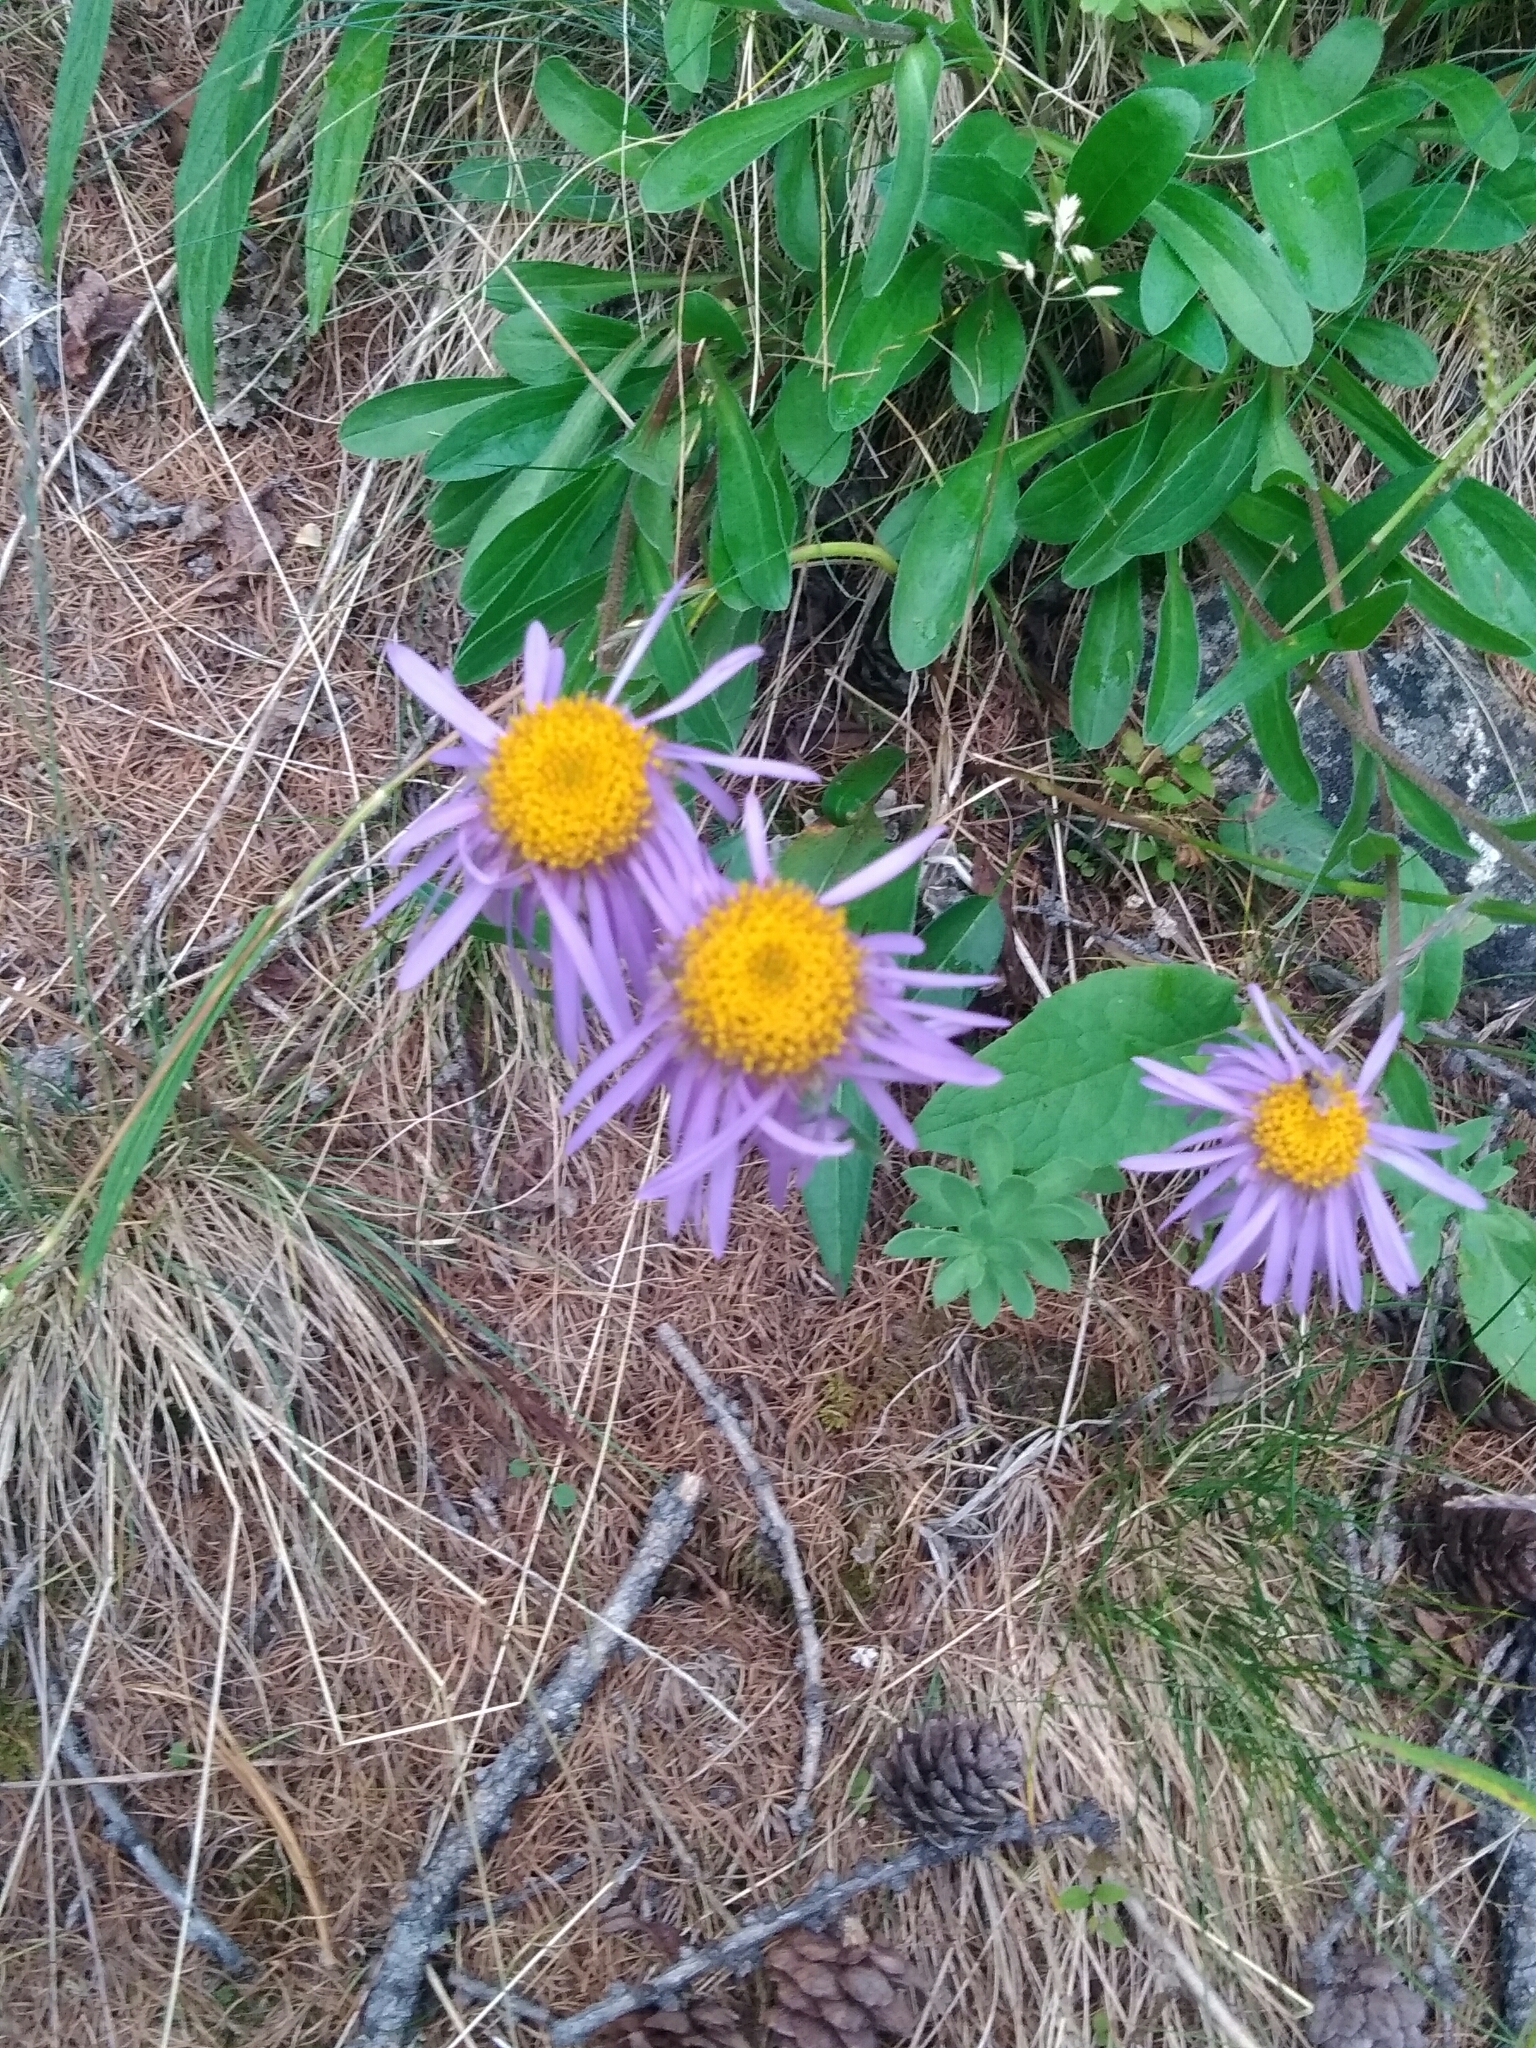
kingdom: Plantae
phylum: Tracheophyta
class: Magnoliopsida
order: Asterales
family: Asteraceae
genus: Aster
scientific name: Aster alpinus
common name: Alpine aster
